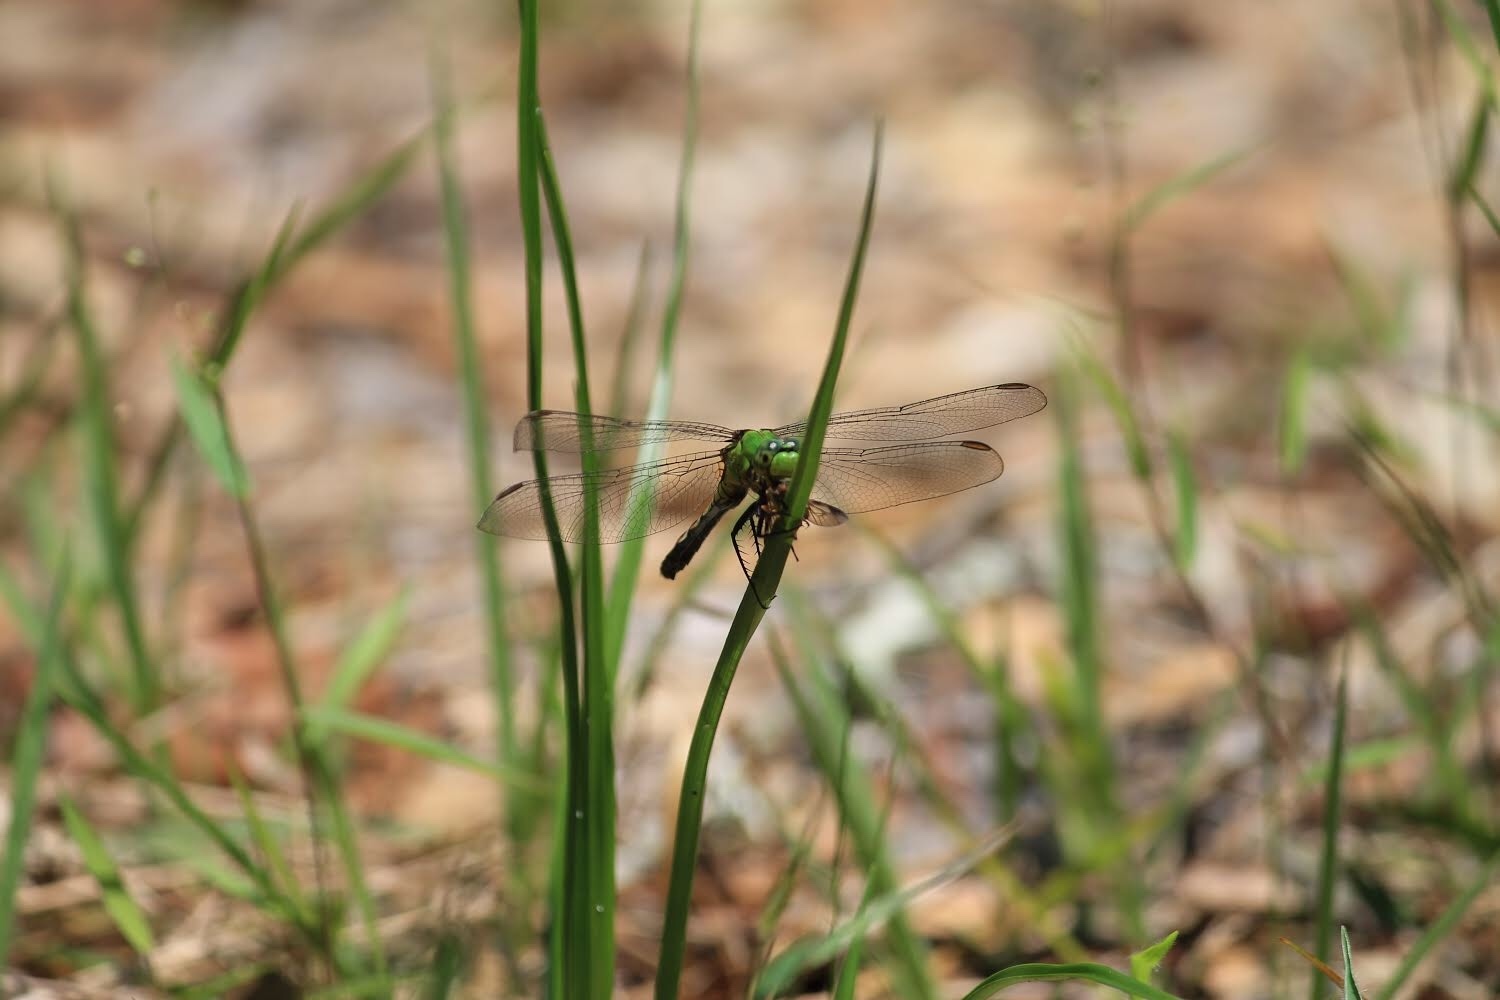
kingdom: Animalia
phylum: Arthropoda
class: Insecta
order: Odonata
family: Libellulidae
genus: Erythemis
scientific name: Erythemis simplicicollis
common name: Eastern pondhawk
